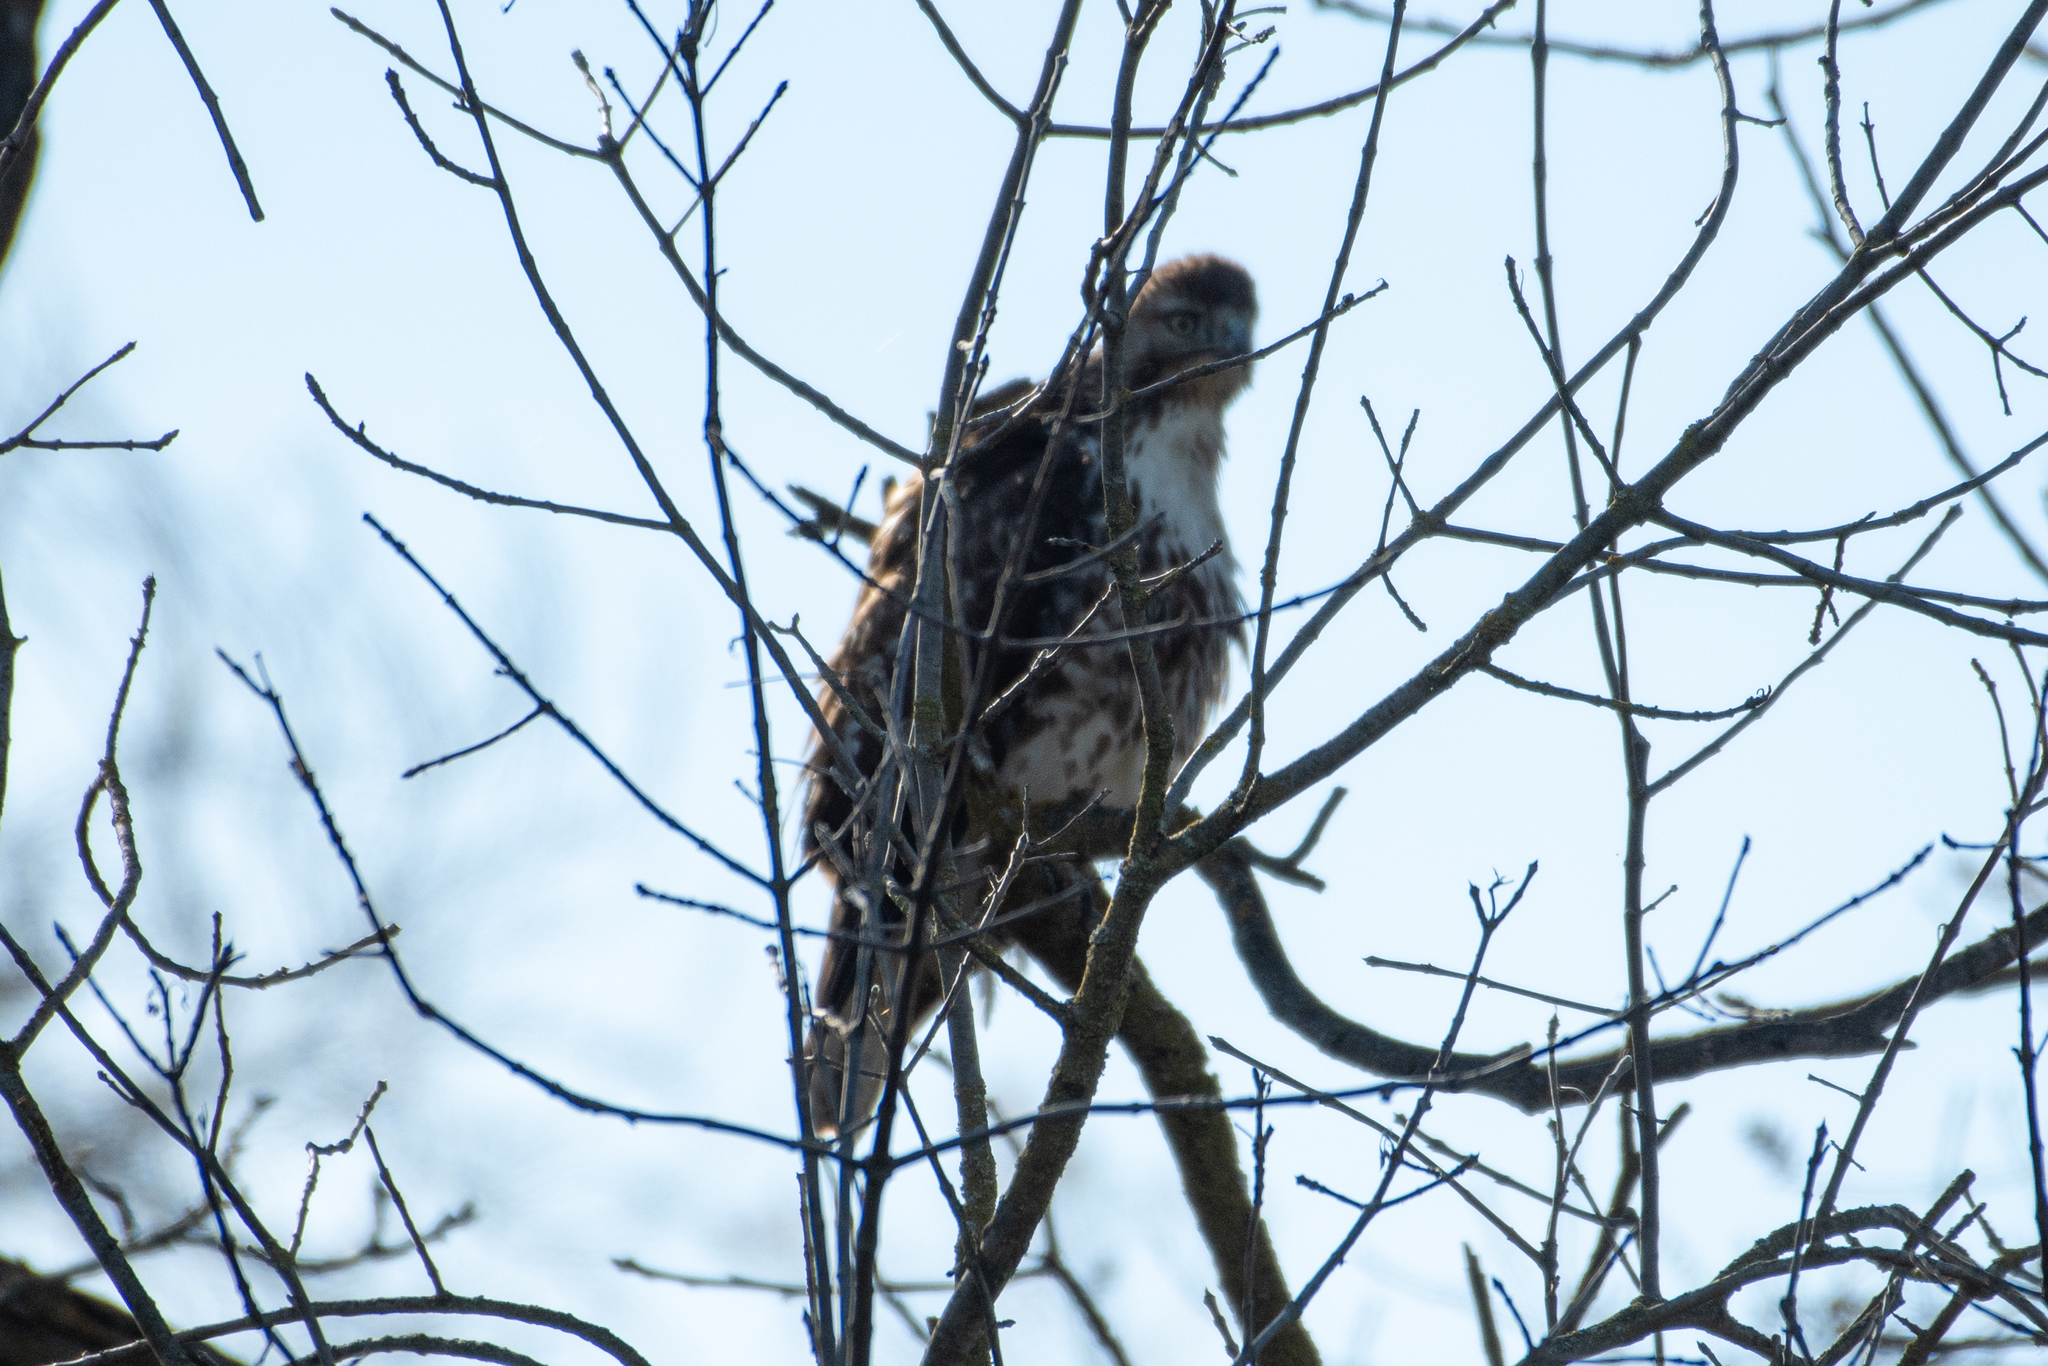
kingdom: Animalia
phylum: Chordata
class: Aves
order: Accipitriformes
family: Accipitridae
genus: Buteo
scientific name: Buteo jamaicensis
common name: Red-tailed hawk
